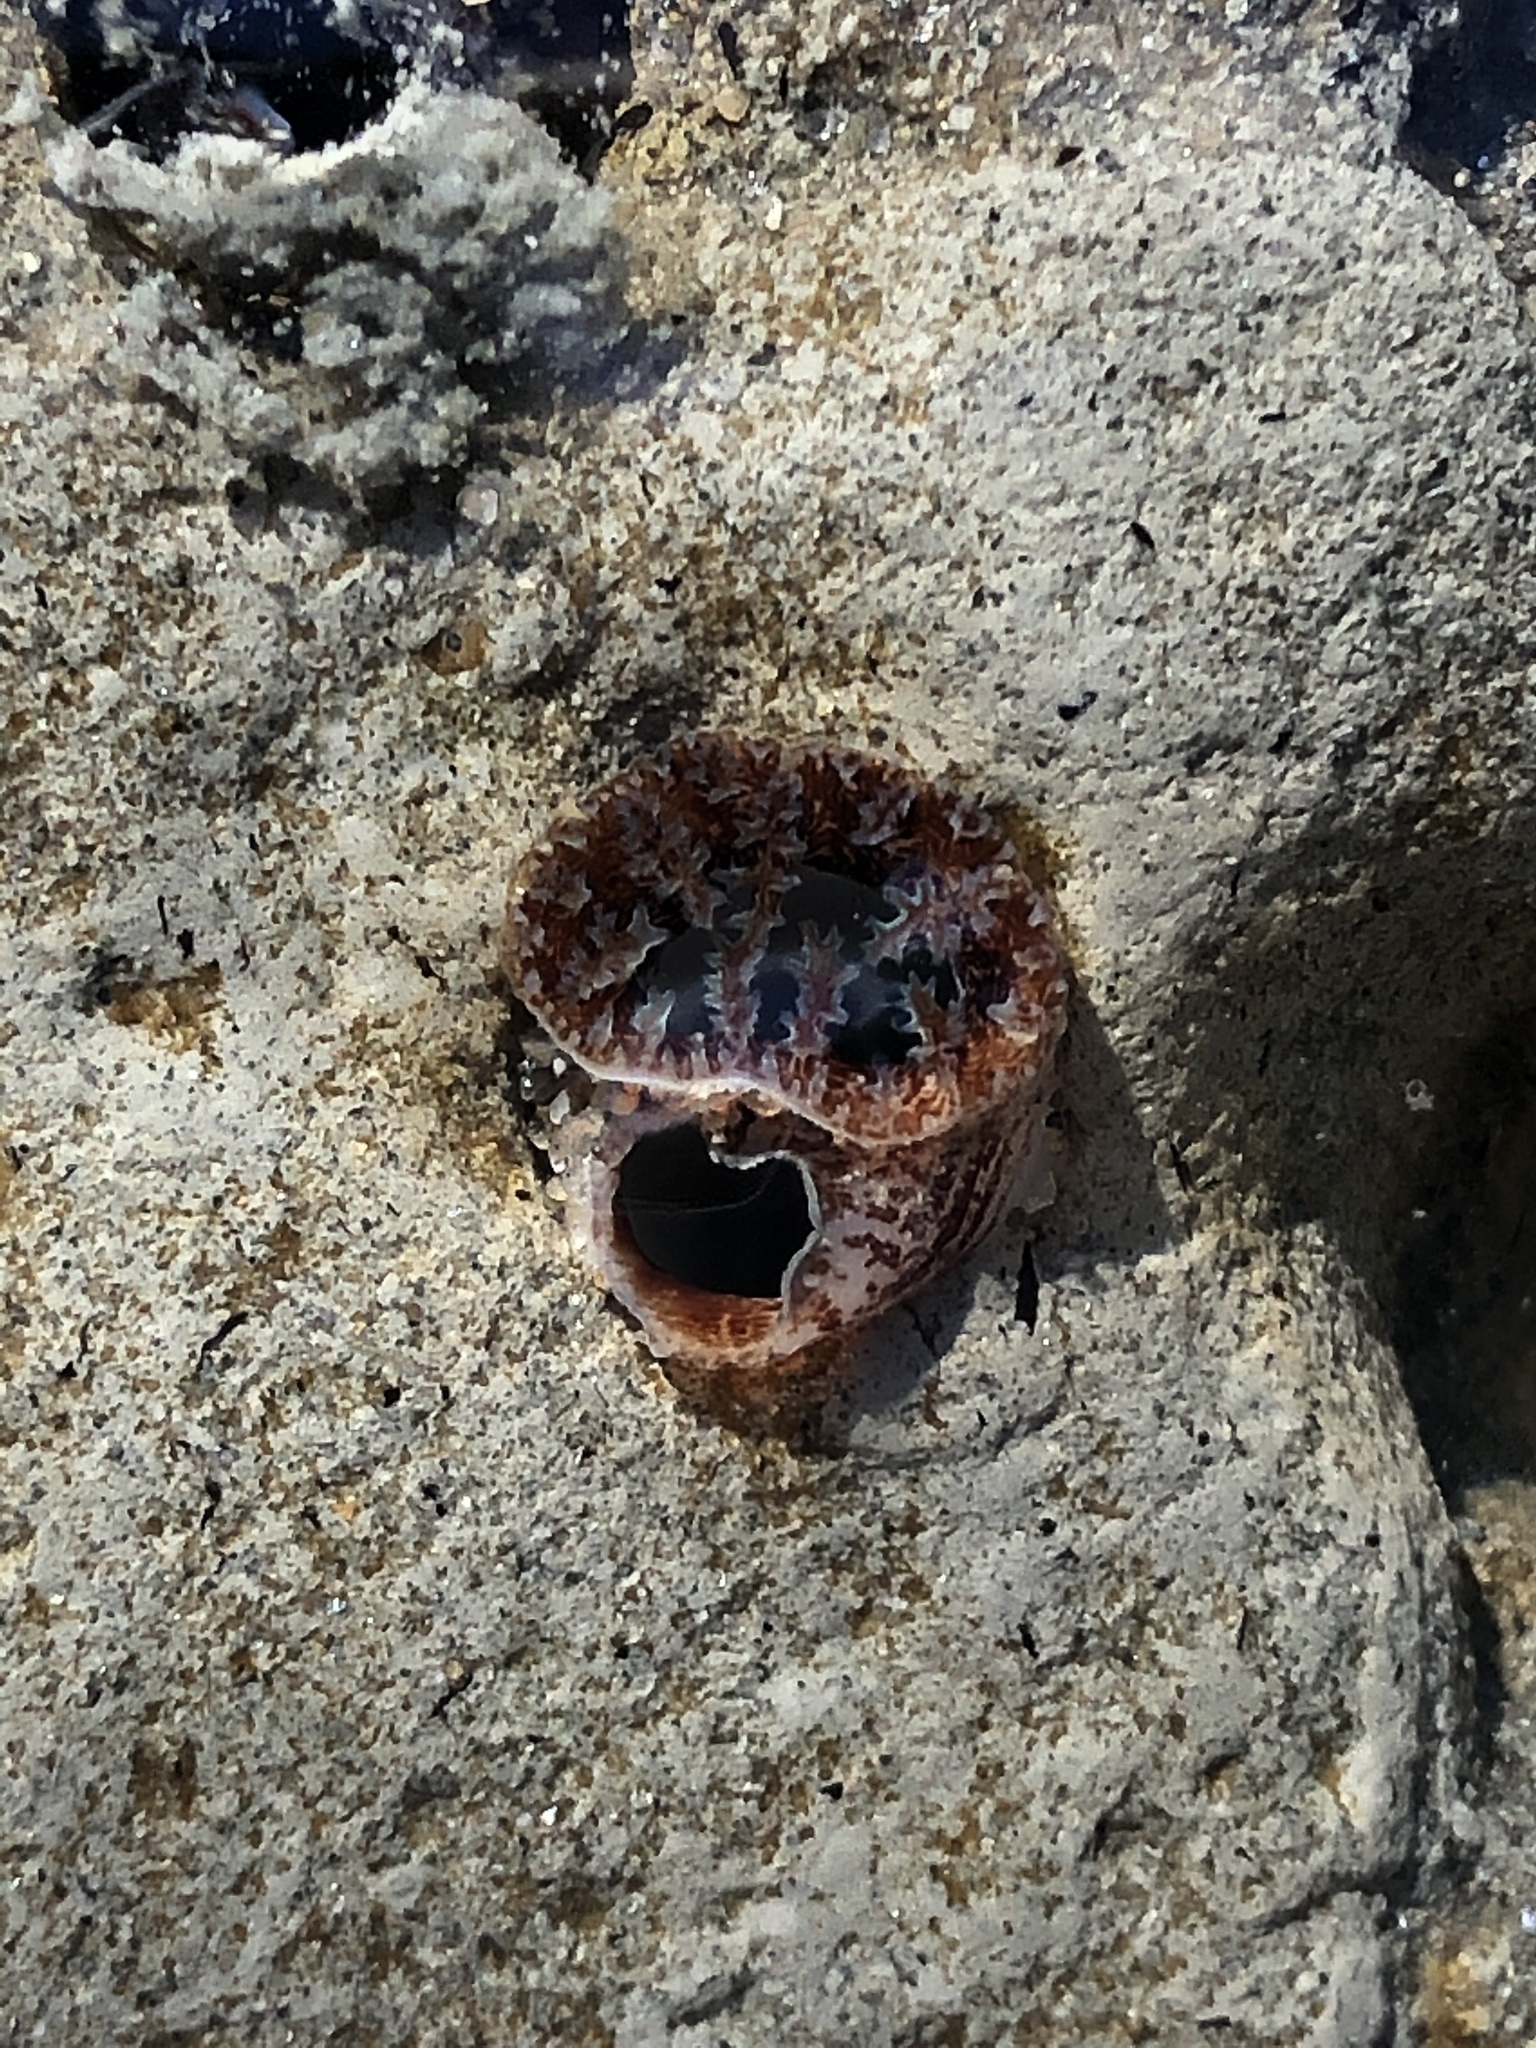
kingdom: Animalia
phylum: Mollusca
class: Bivalvia
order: Myida
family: Pholadidae
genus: Parapholas
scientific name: Parapholas californica
